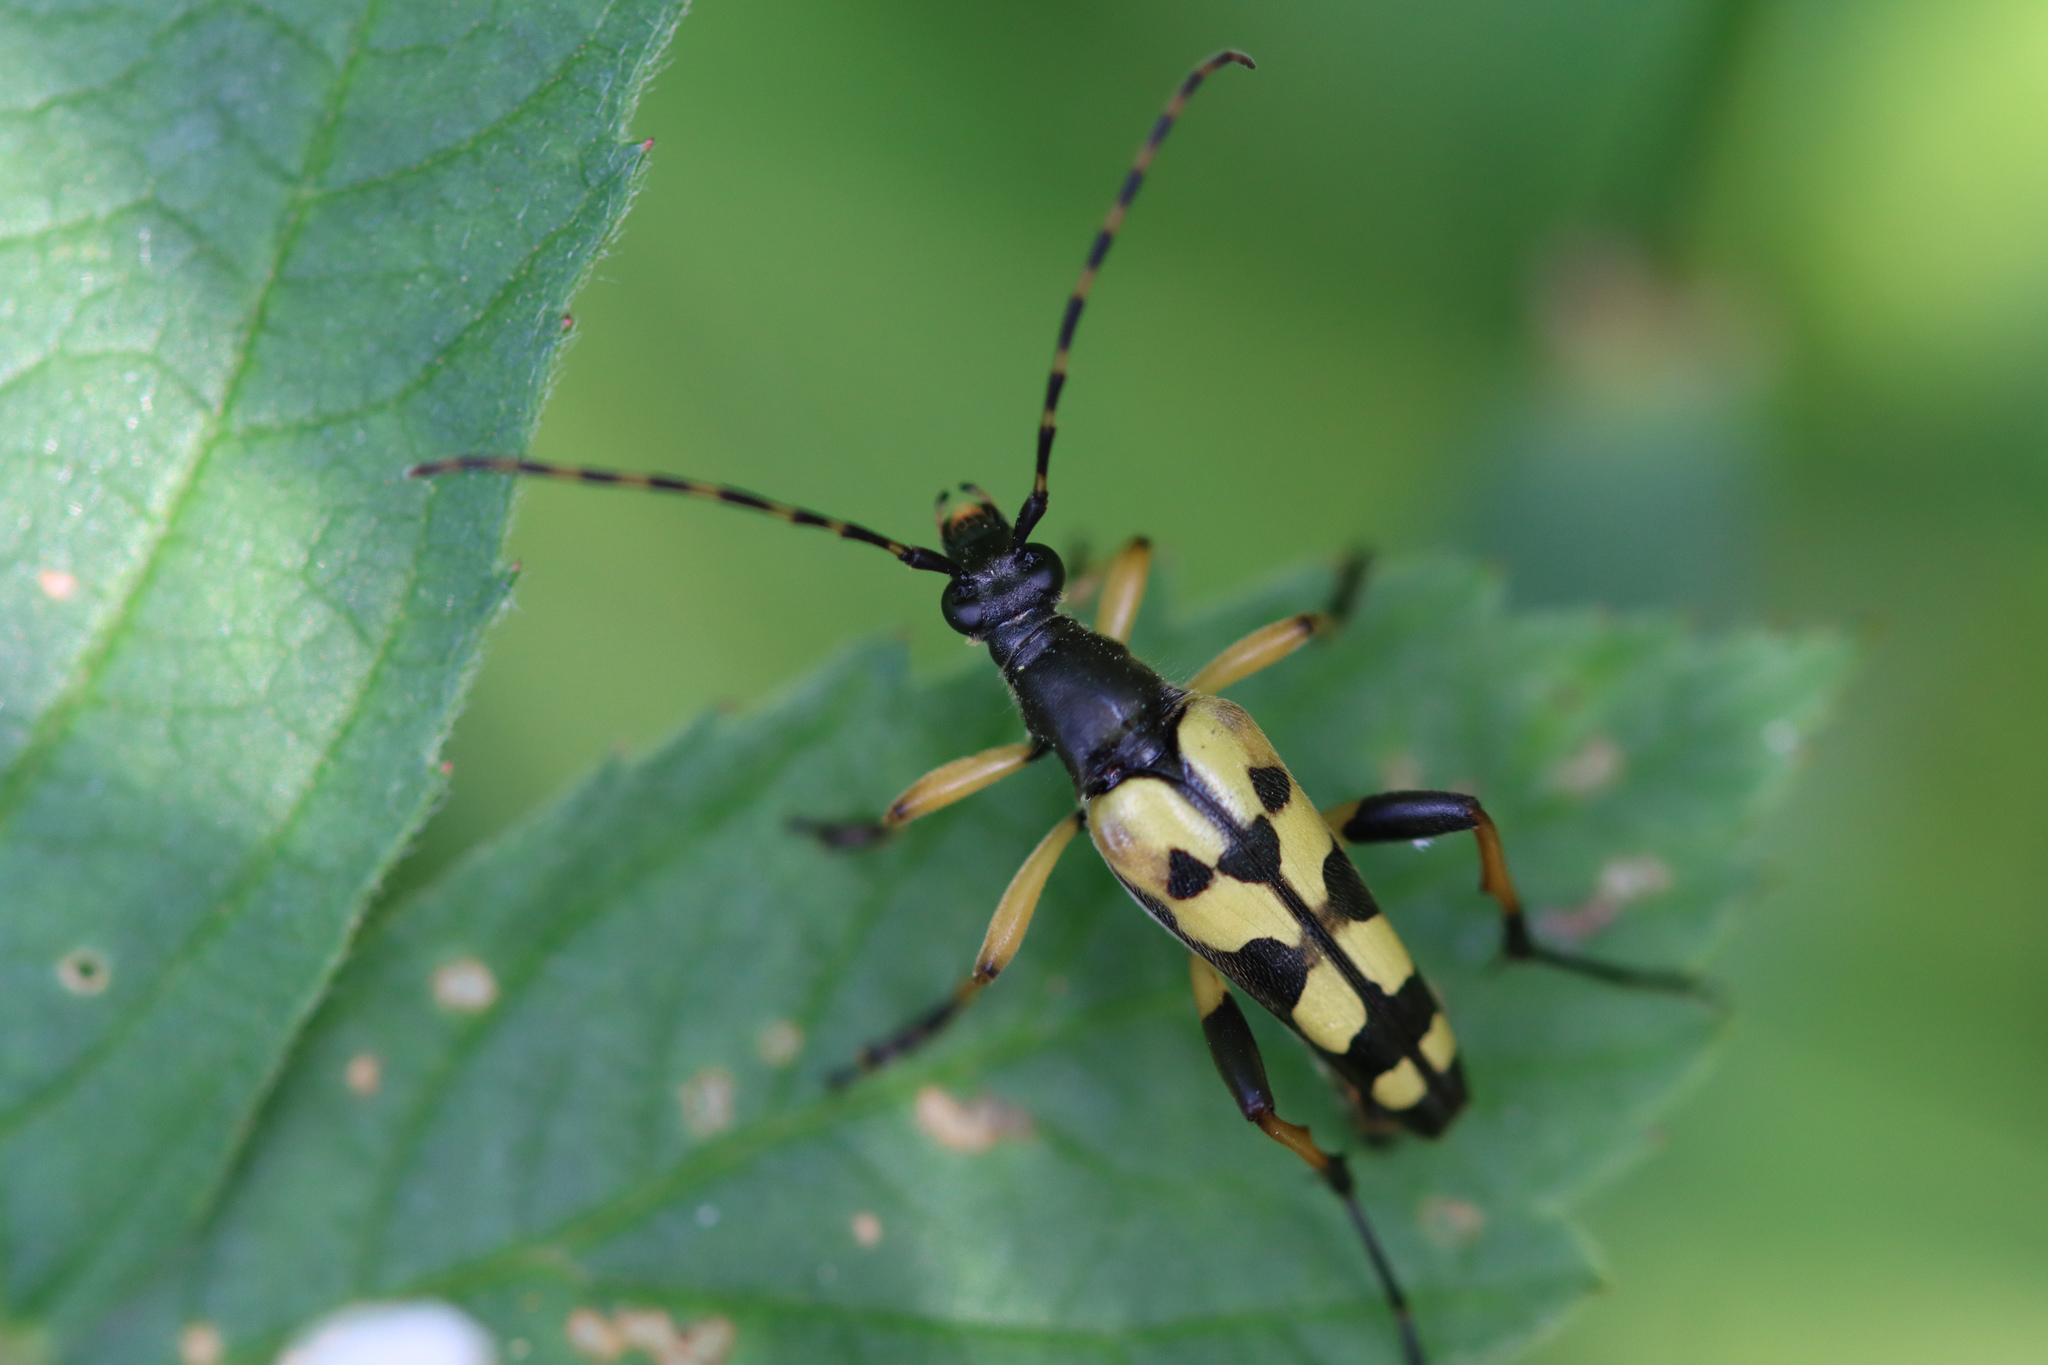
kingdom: Animalia
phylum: Arthropoda
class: Insecta
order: Coleoptera
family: Cerambycidae
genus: Rutpela
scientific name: Rutpela maculata
